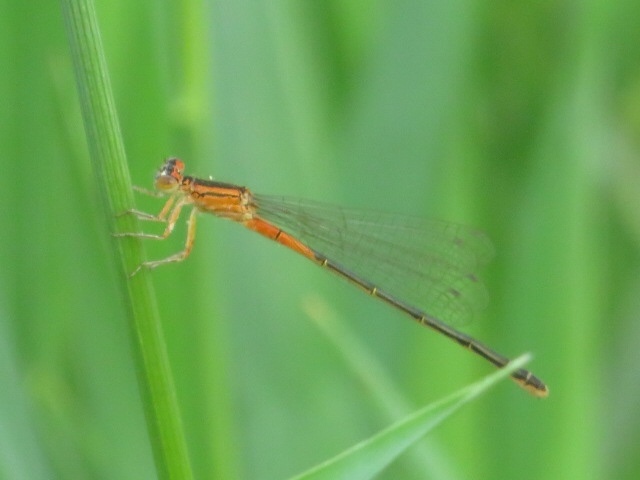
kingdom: Animalia
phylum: Arthropoda
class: Insecta
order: Odonata
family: Coenagrionidae
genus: Ischnura
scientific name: Ischnura verticalis
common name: Eastern forktail
